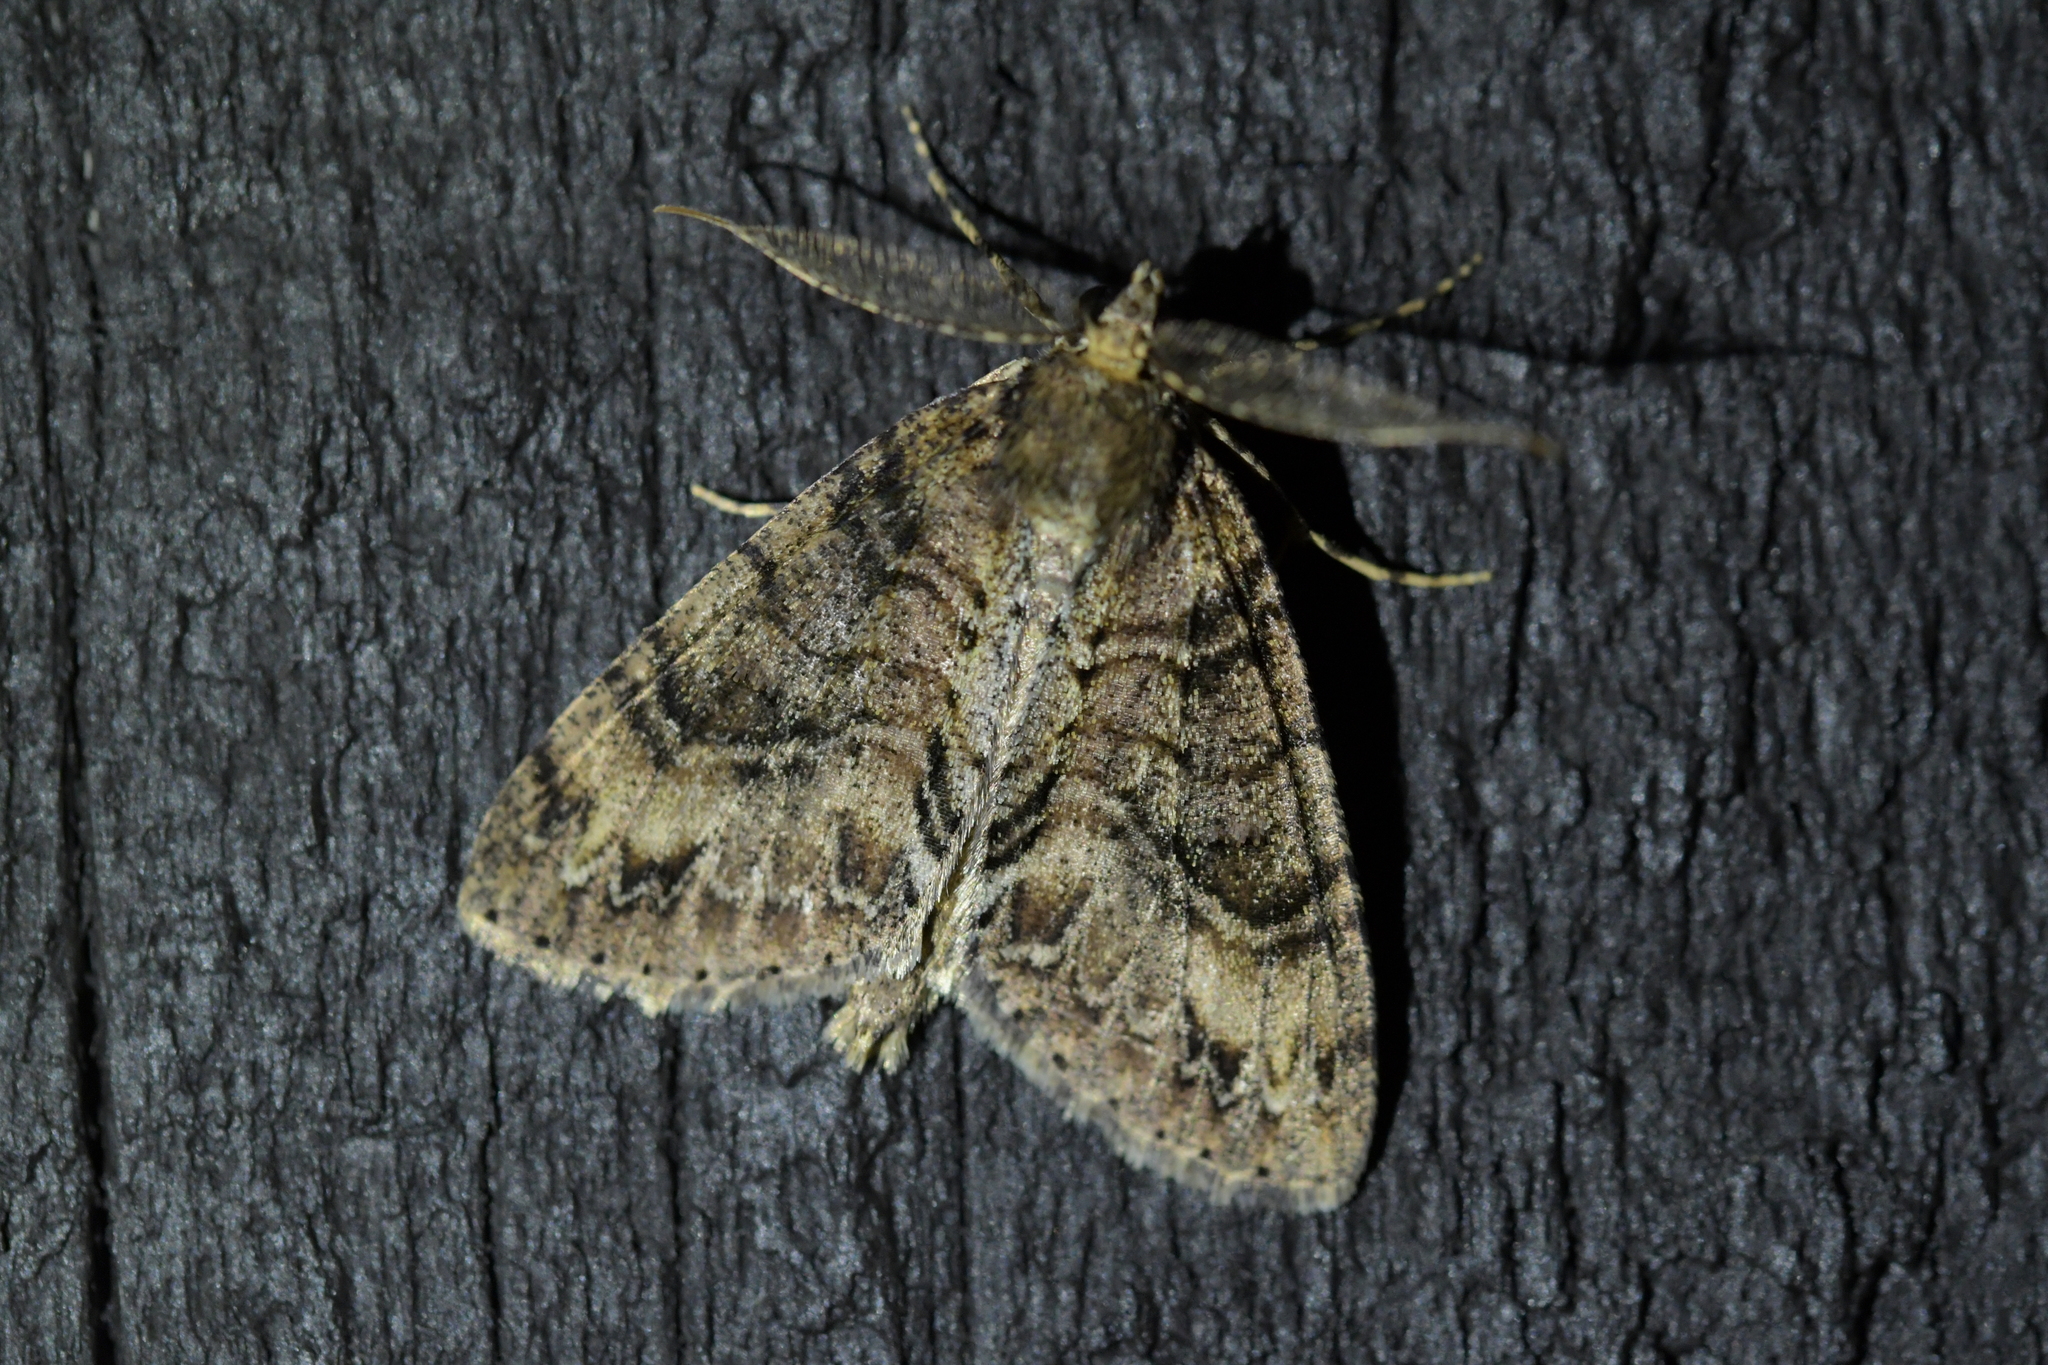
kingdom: Animalia
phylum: Arthropoda
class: Insecta
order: Lepidoptera
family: Geometridae
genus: Pseudocoremia
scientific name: Pseudocoremia suavis
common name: Common forest looper
